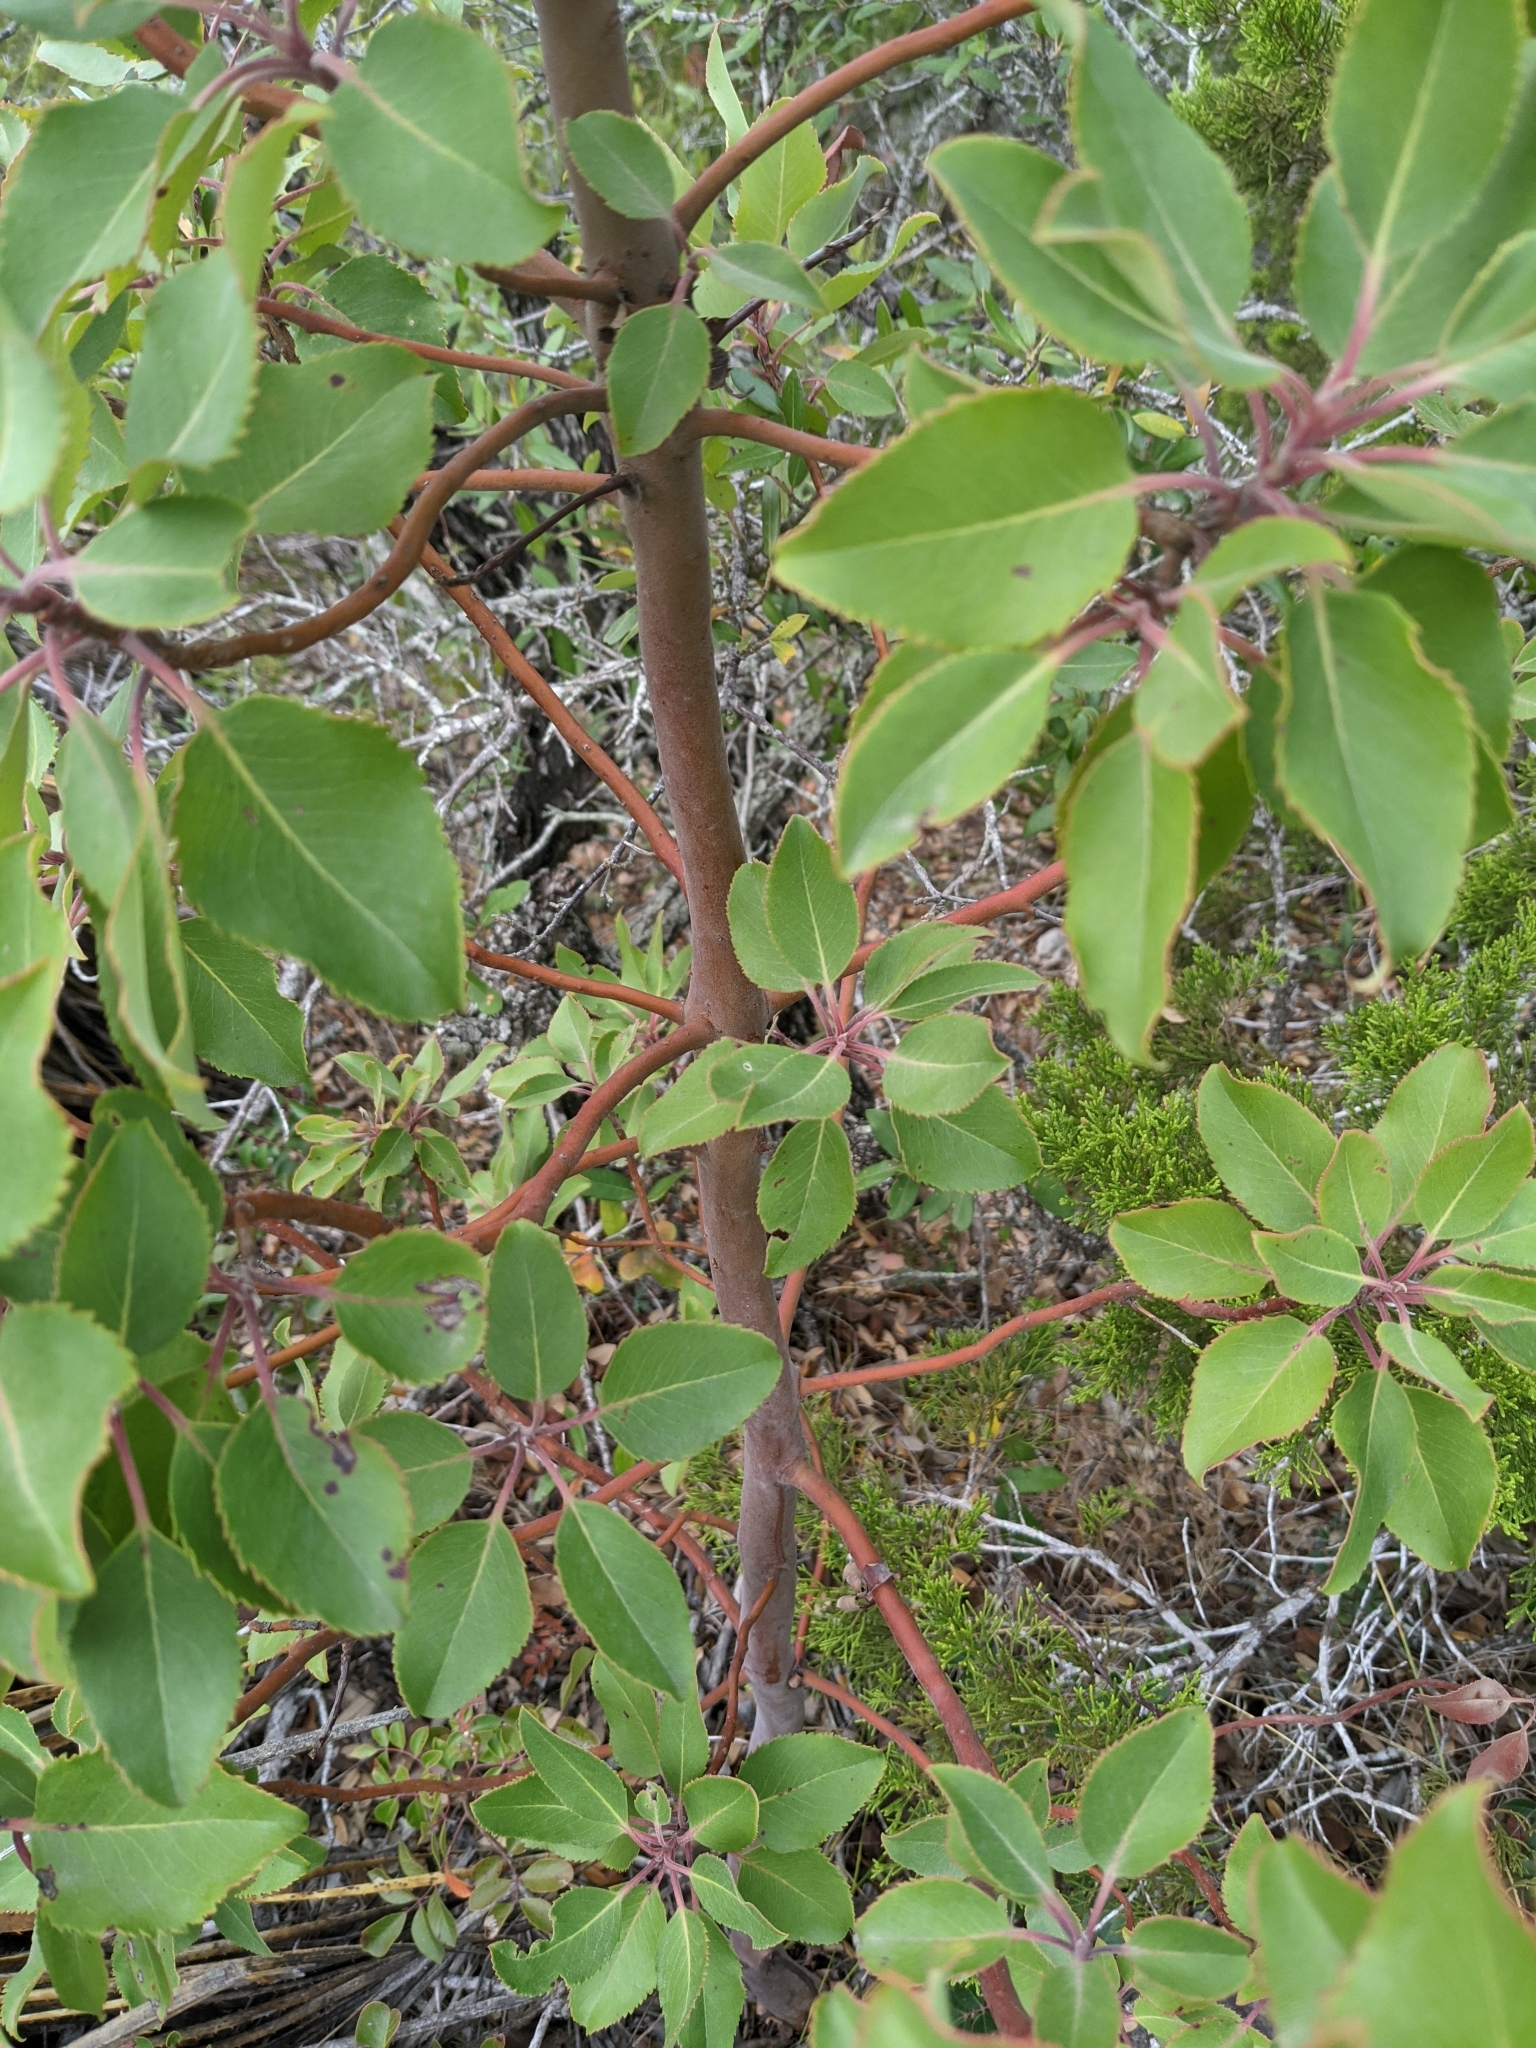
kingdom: Plantae
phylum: Tracheophyta
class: Magnoliopsida
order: Ericales
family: Ericaceae
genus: Arbutus
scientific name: Arbutus xalapensis
